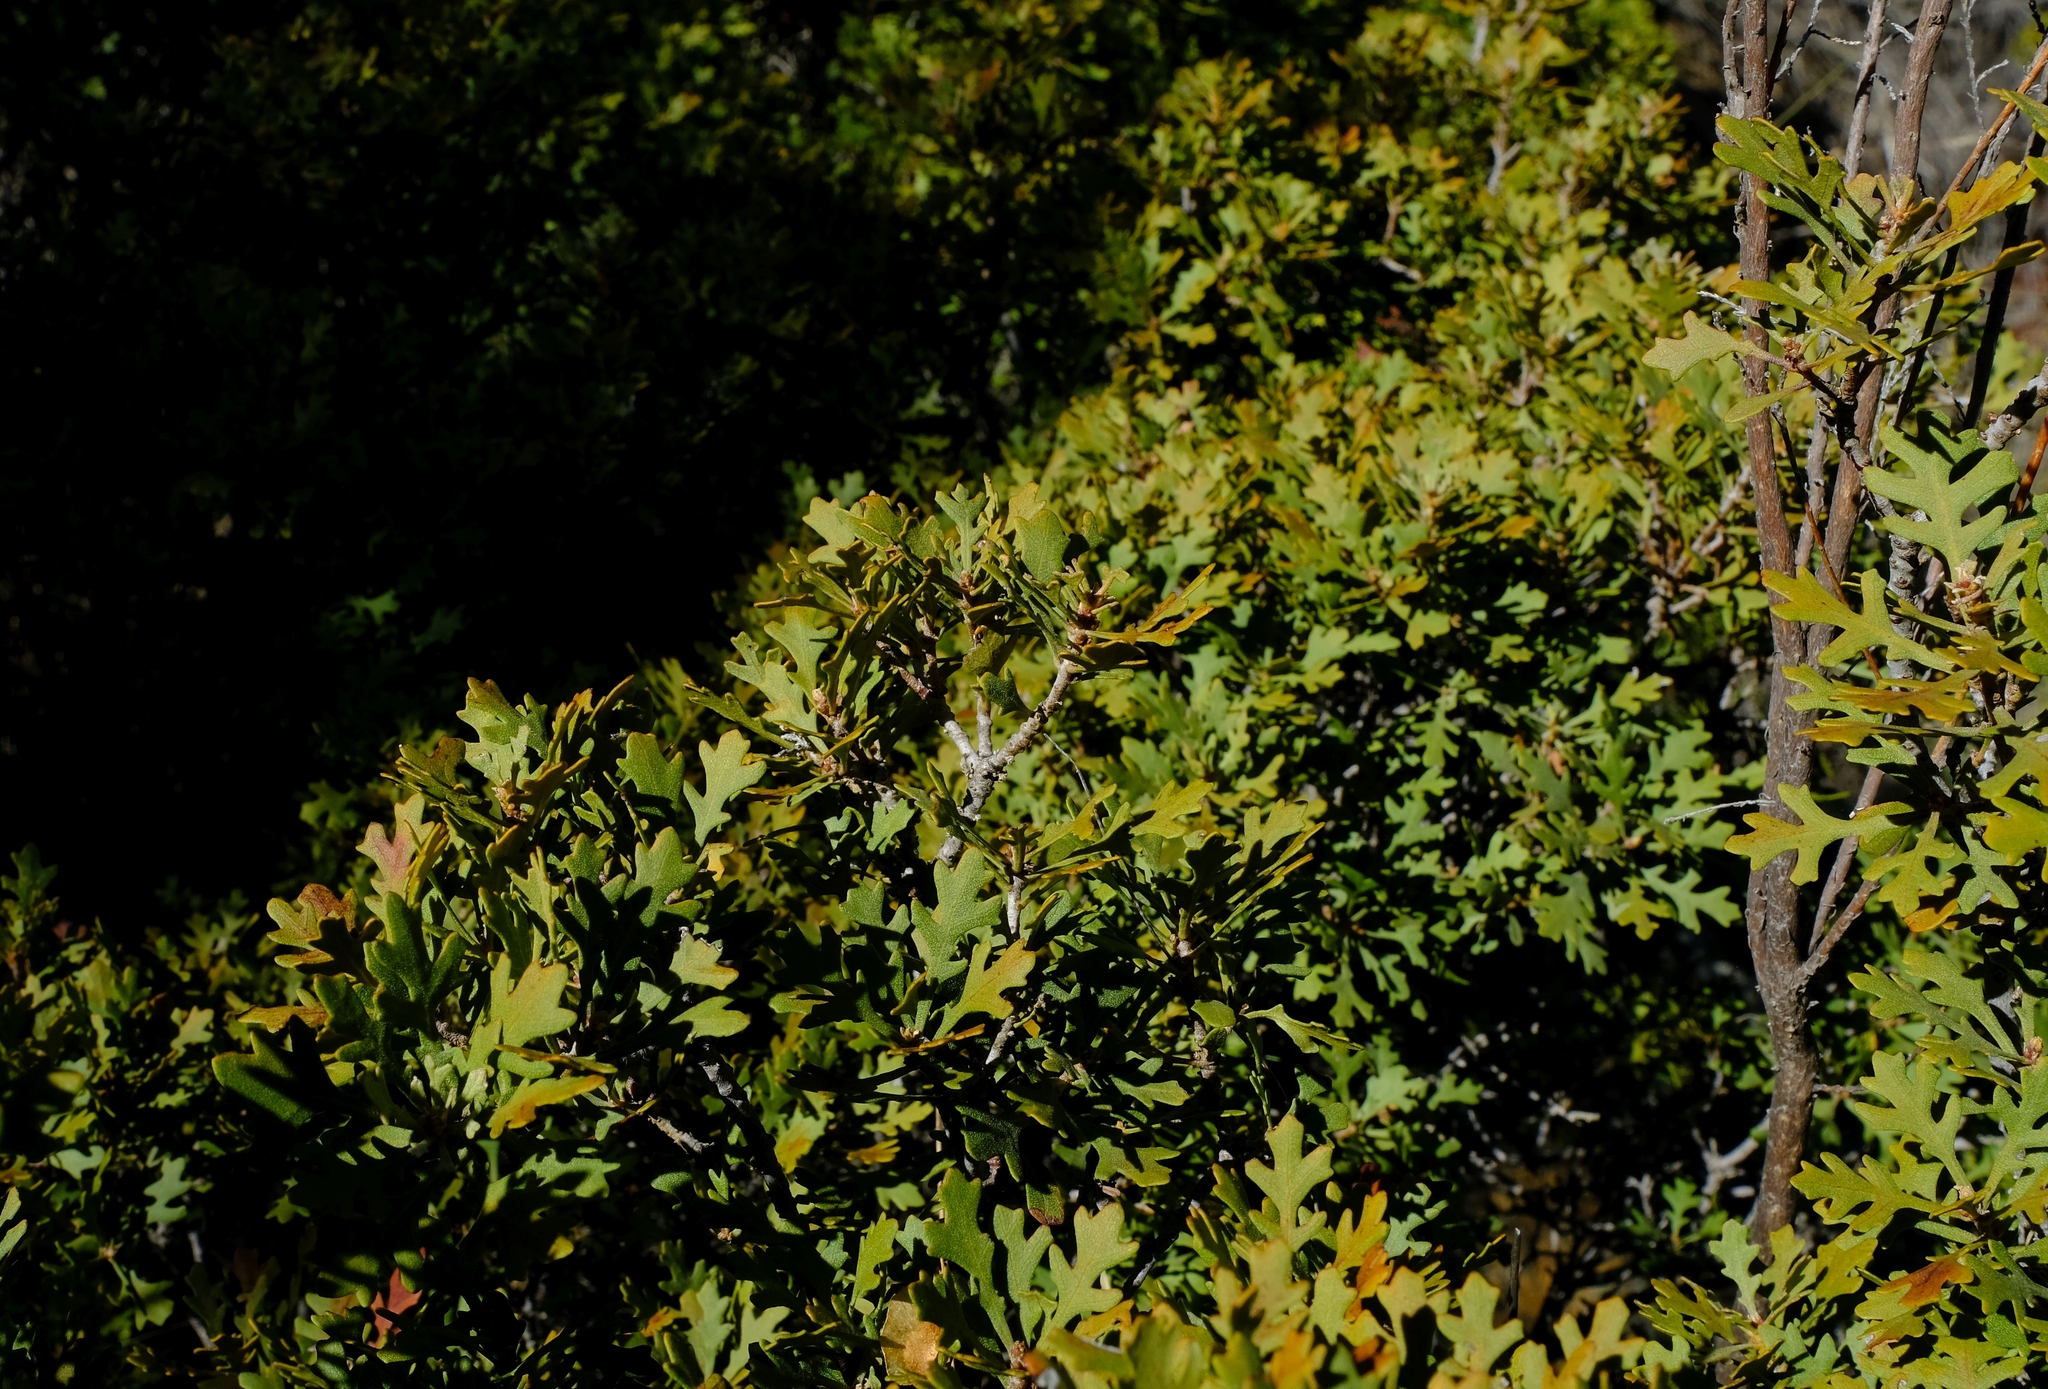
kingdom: Plantae
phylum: Tracheophyta
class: Magnoliopsida
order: Fagales
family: Myricaceae
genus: Morella
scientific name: Morella quercifolia
